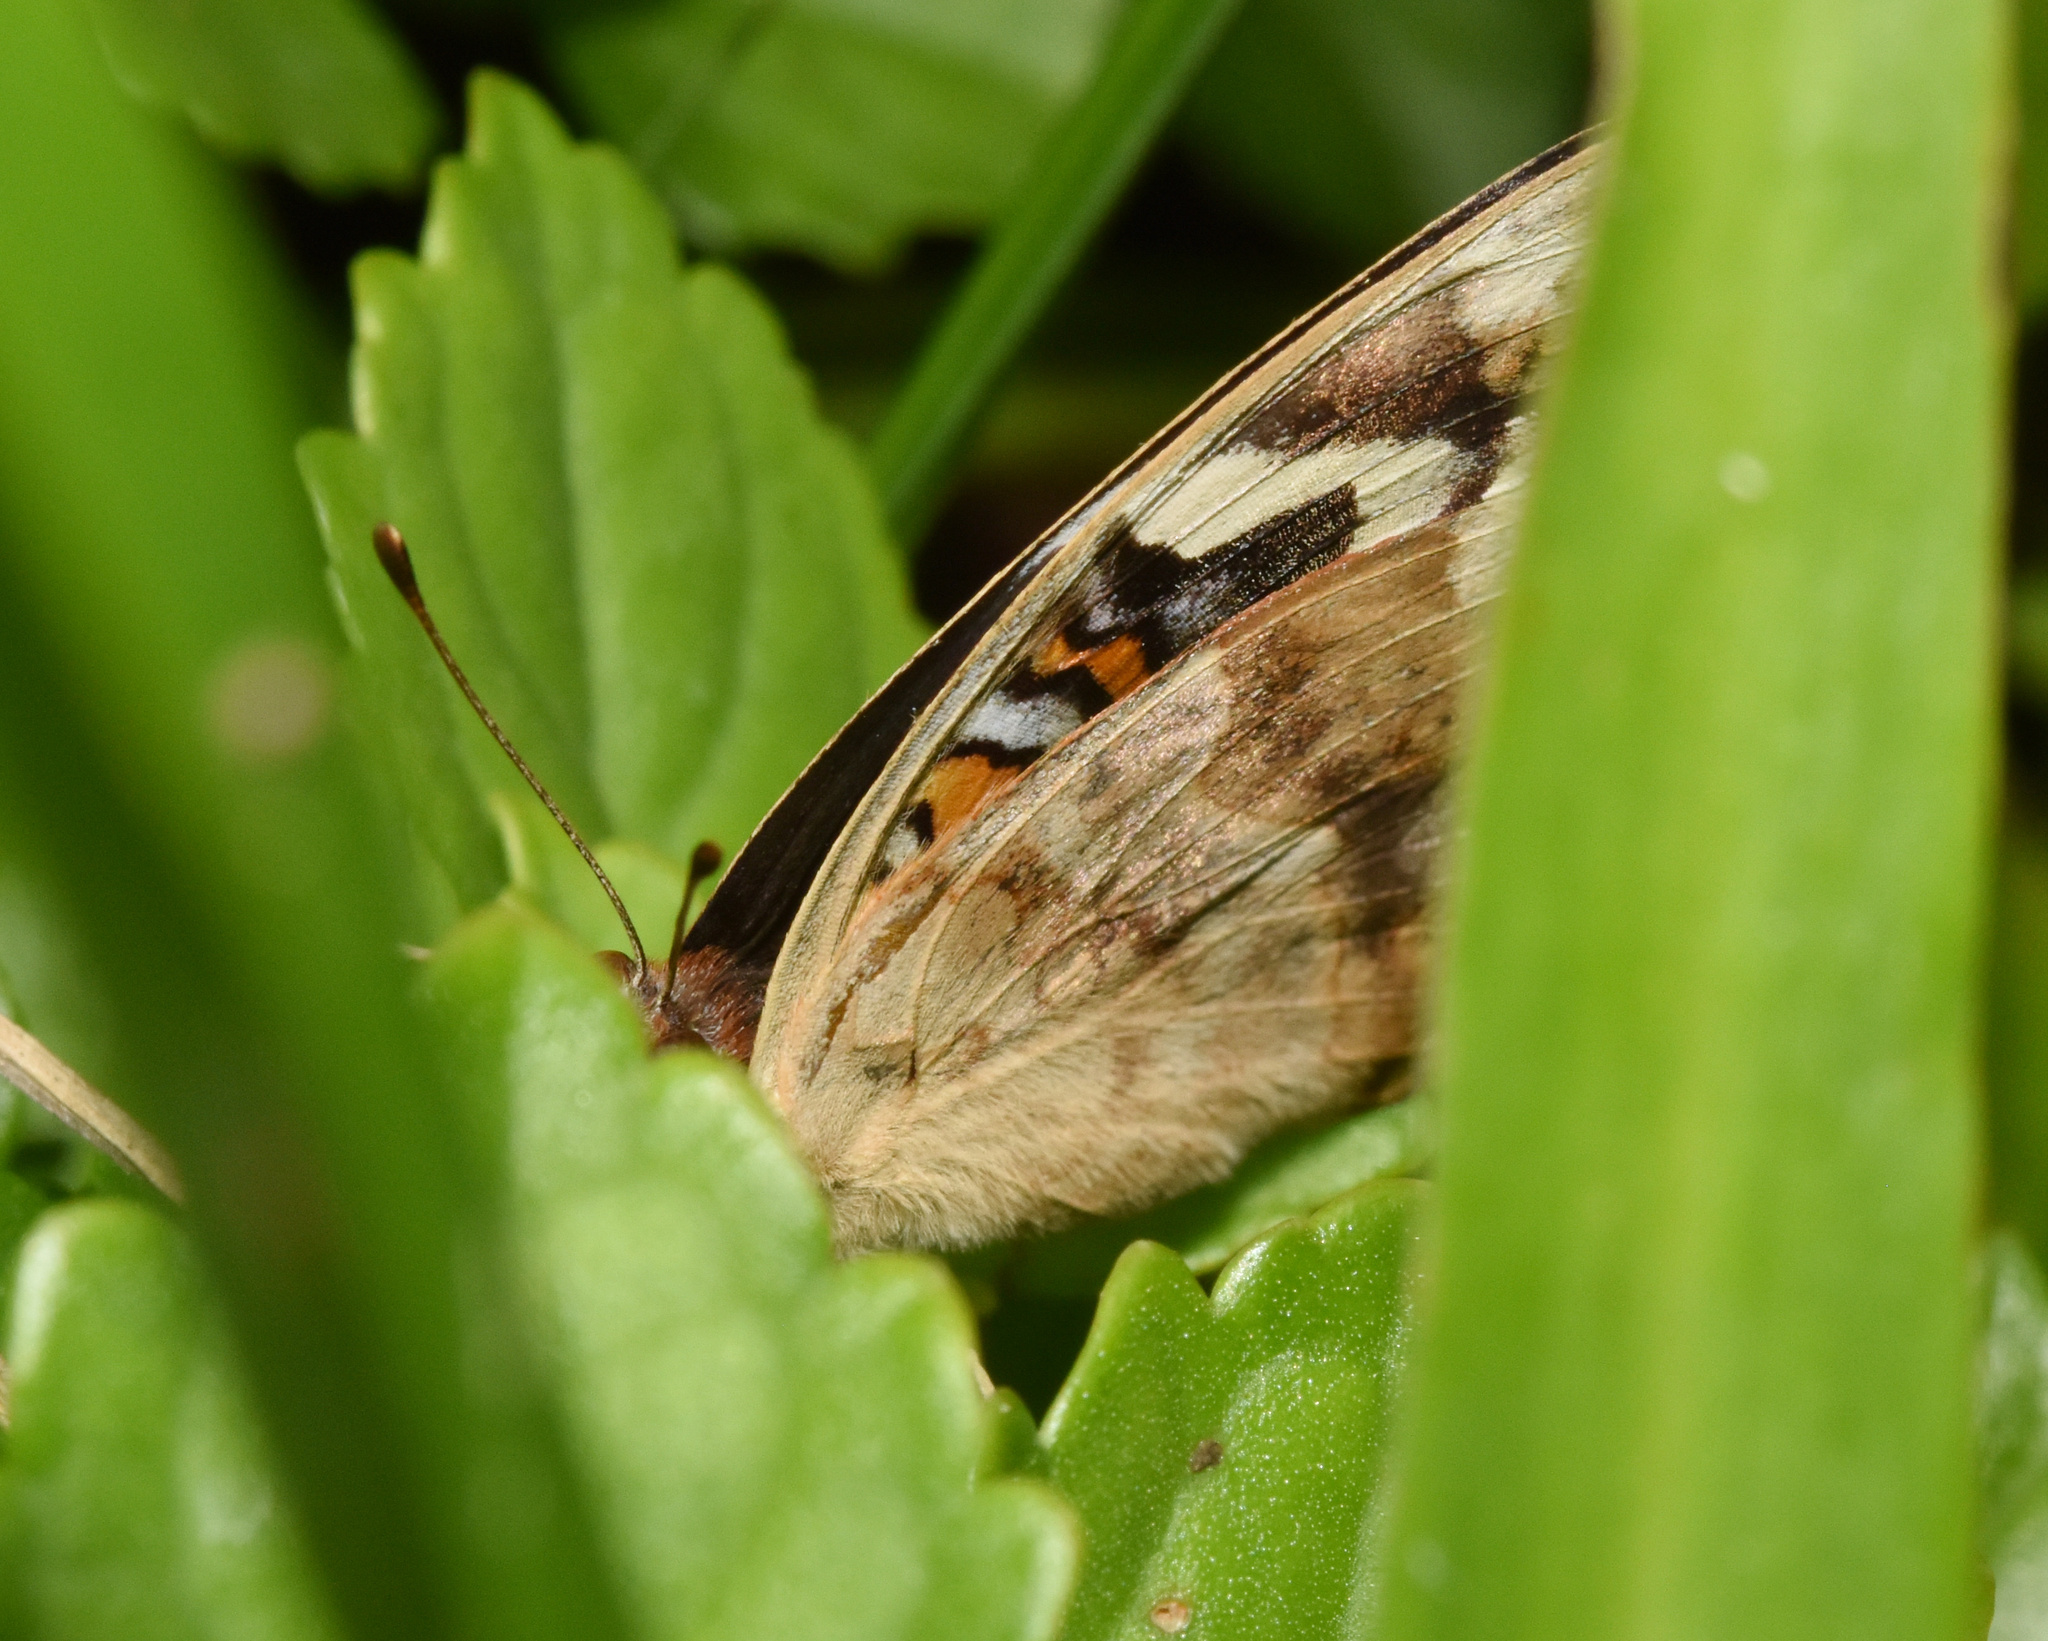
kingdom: Animalia
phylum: Arthropoda
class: Insecta
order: Lepidoptera
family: Nymphalidae
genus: Junonia
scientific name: Junonia oenone
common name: Dark blue pansy
